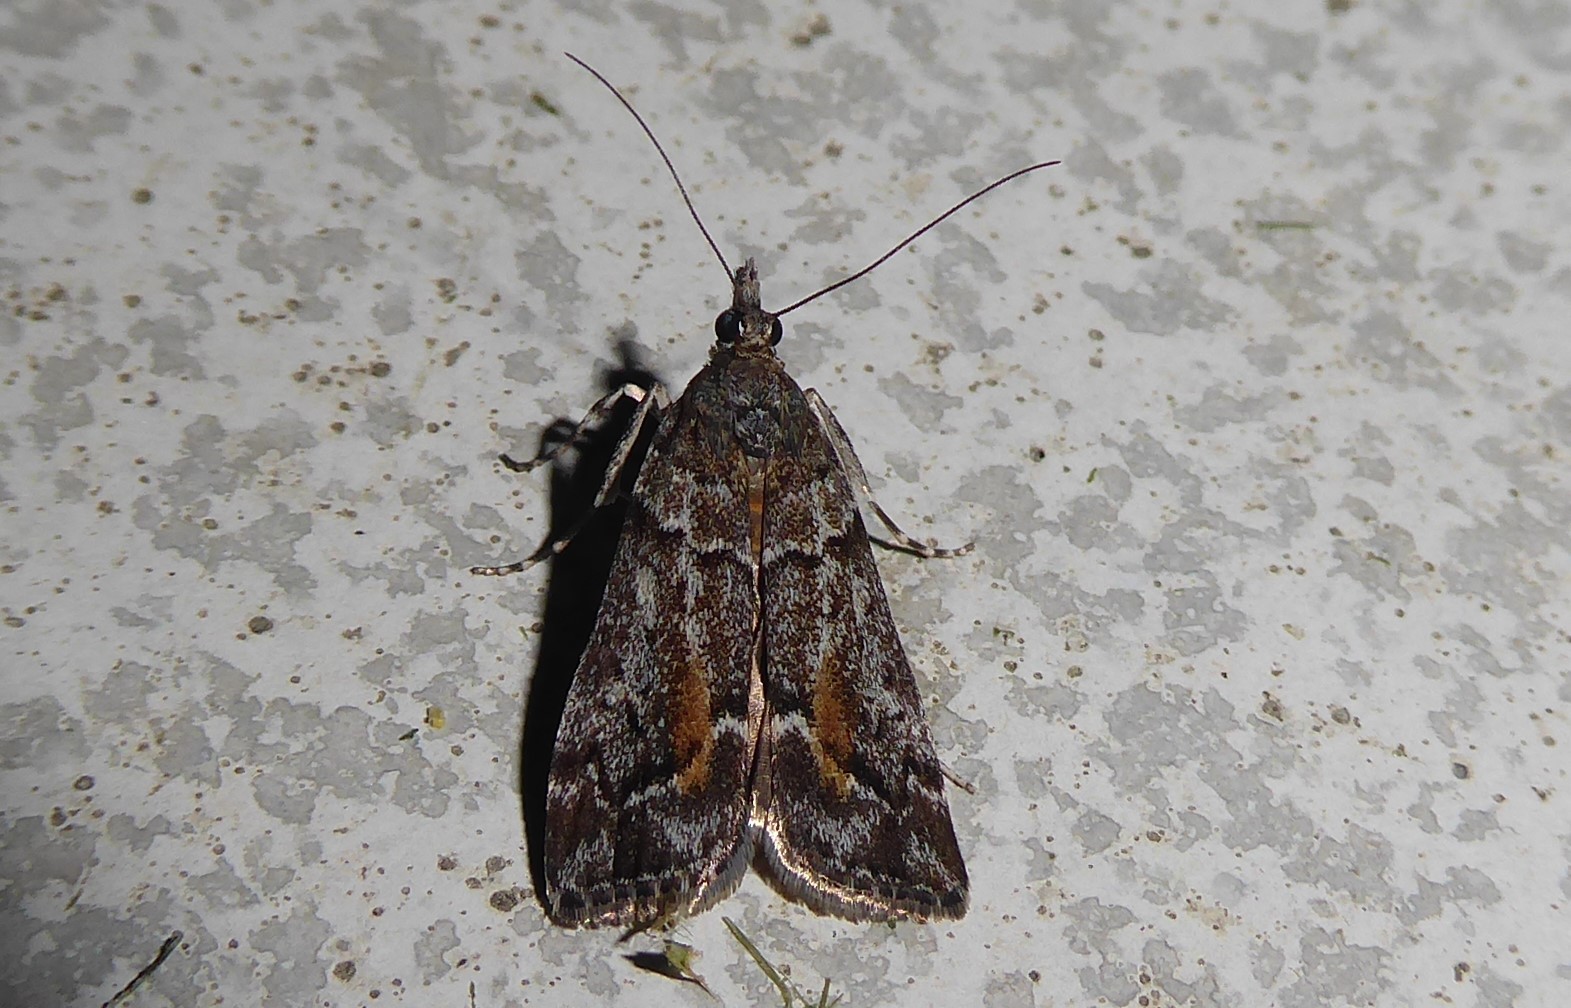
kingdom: Animalia
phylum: Arthropoda
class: Insecta
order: Lepidoptera
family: Crambidae
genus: Eudonia
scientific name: Eudonia submarginalis
